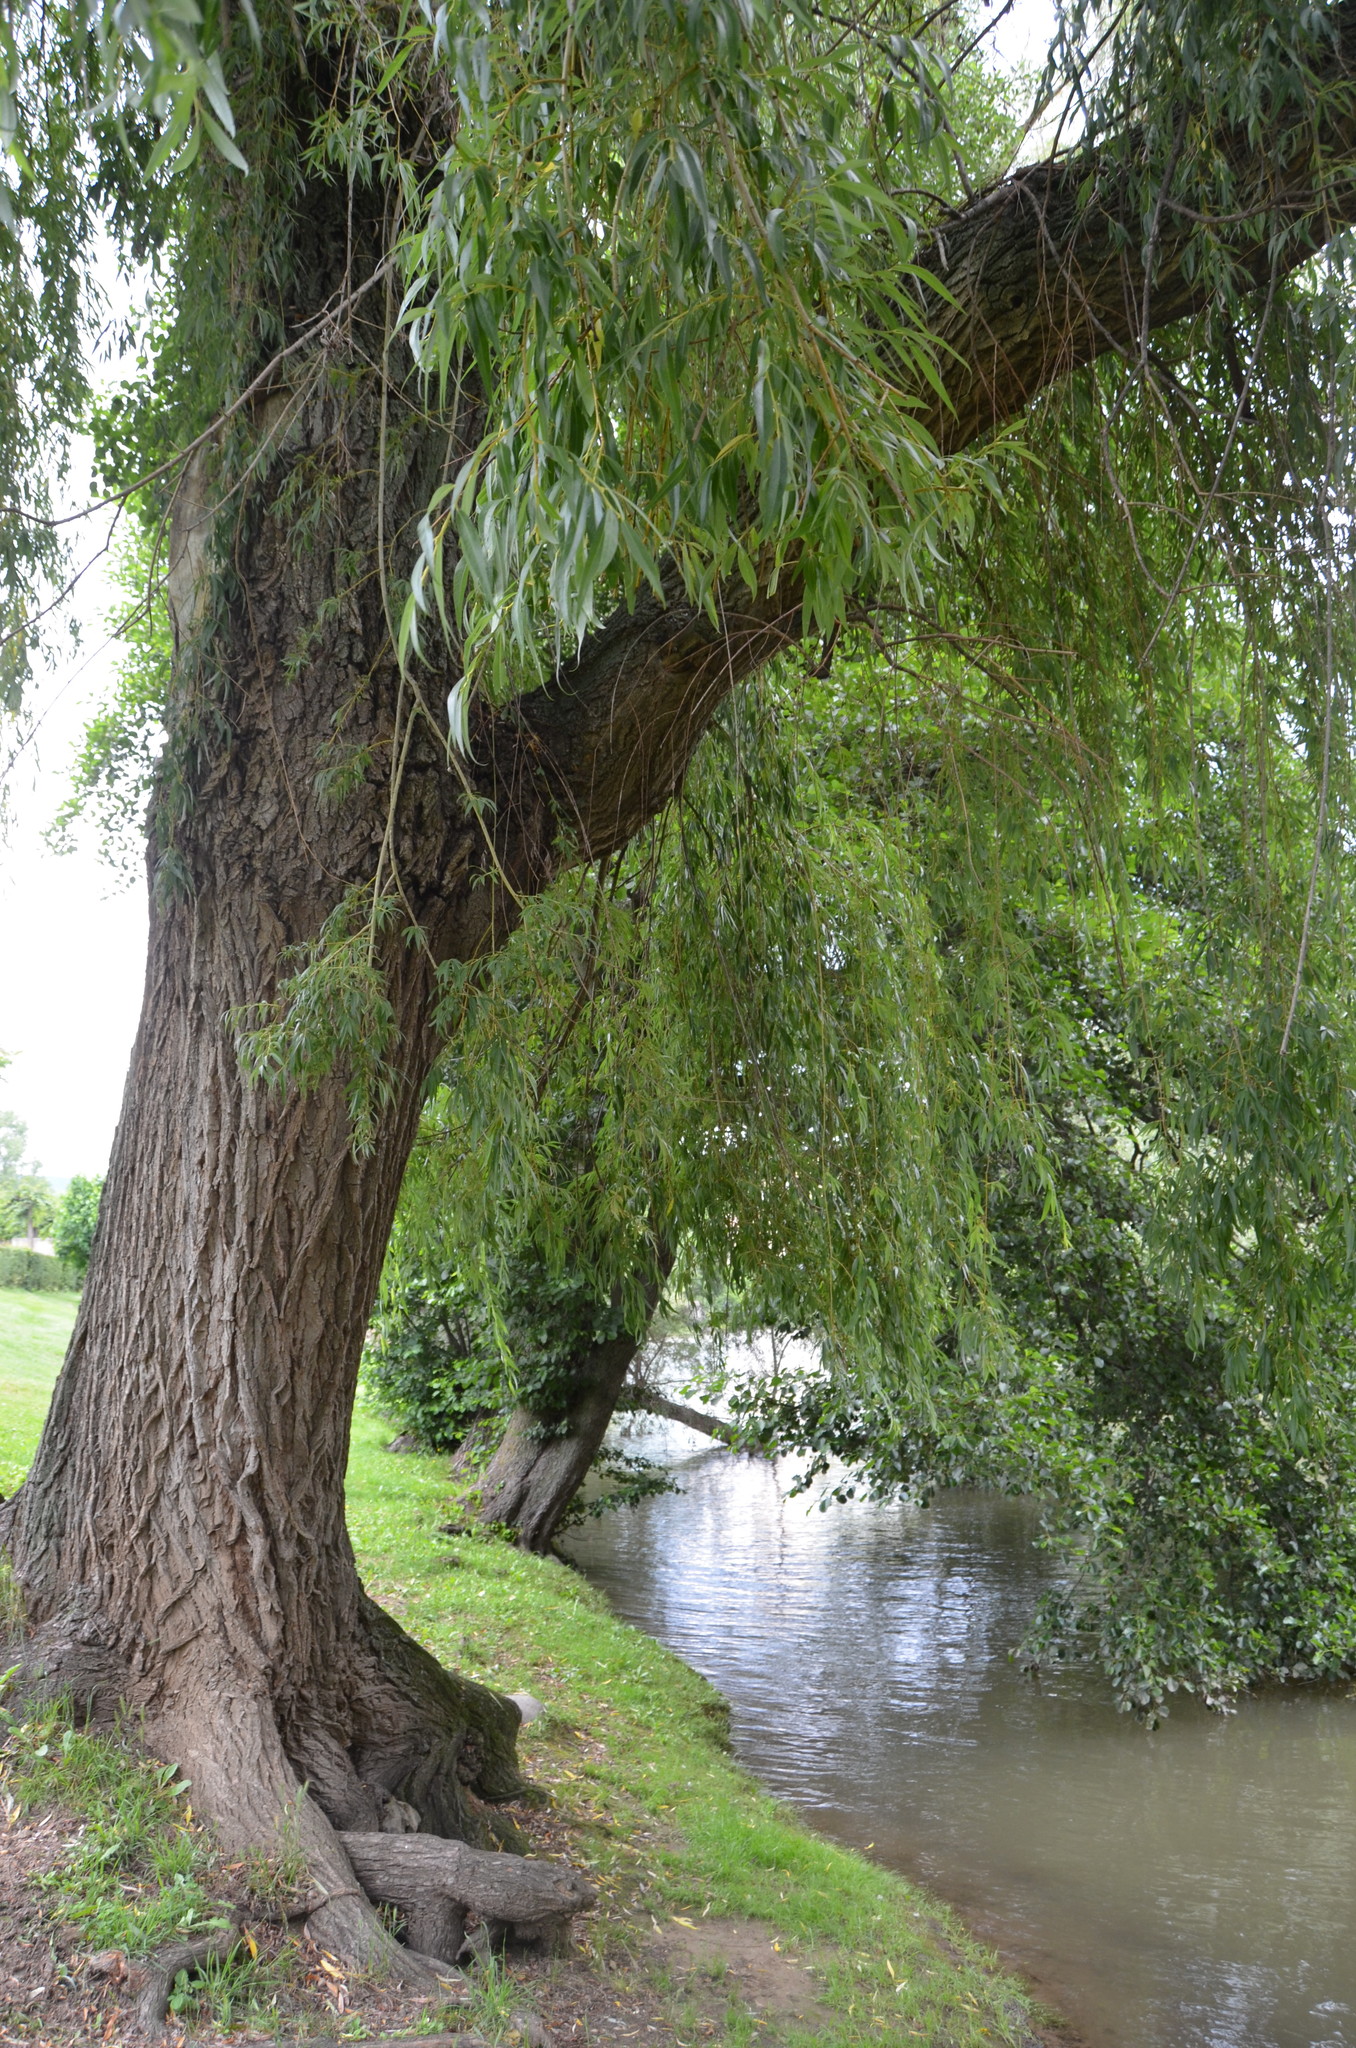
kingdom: Plantae
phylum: Tracheophyta
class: Magnoliopsida
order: Malpighiales
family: Salicaceae
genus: Salix
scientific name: Salix babylonica
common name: Weeping willow
